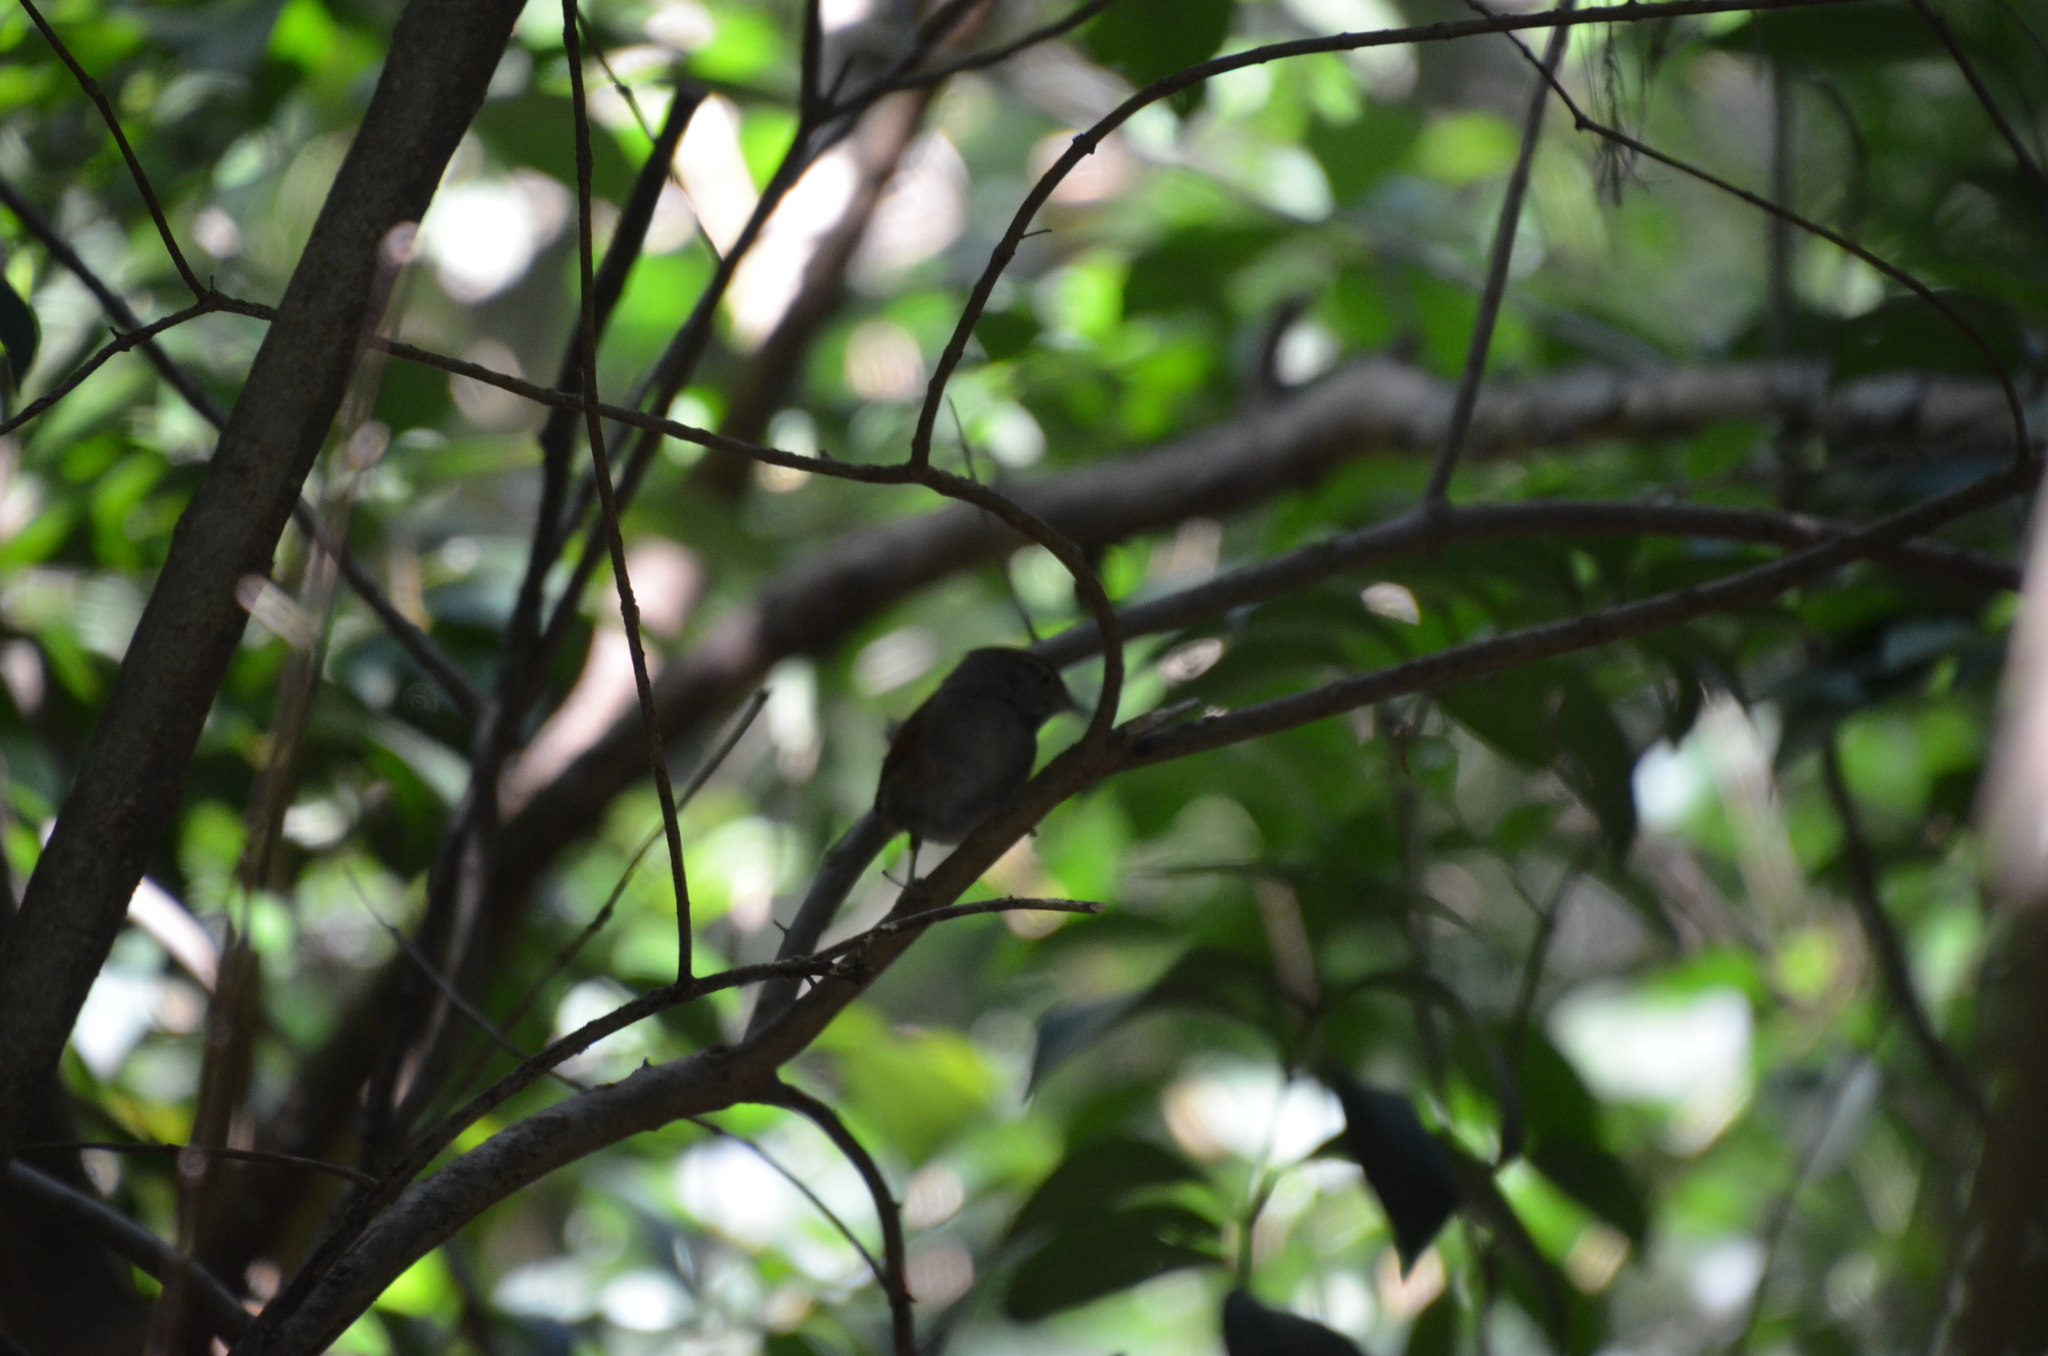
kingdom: Animalia
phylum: Chordata
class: Aves
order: Passeriformes
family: Furnariidae
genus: Synallaxis
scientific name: Synallaxis frontalis
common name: Sooty-fronted spinetail
